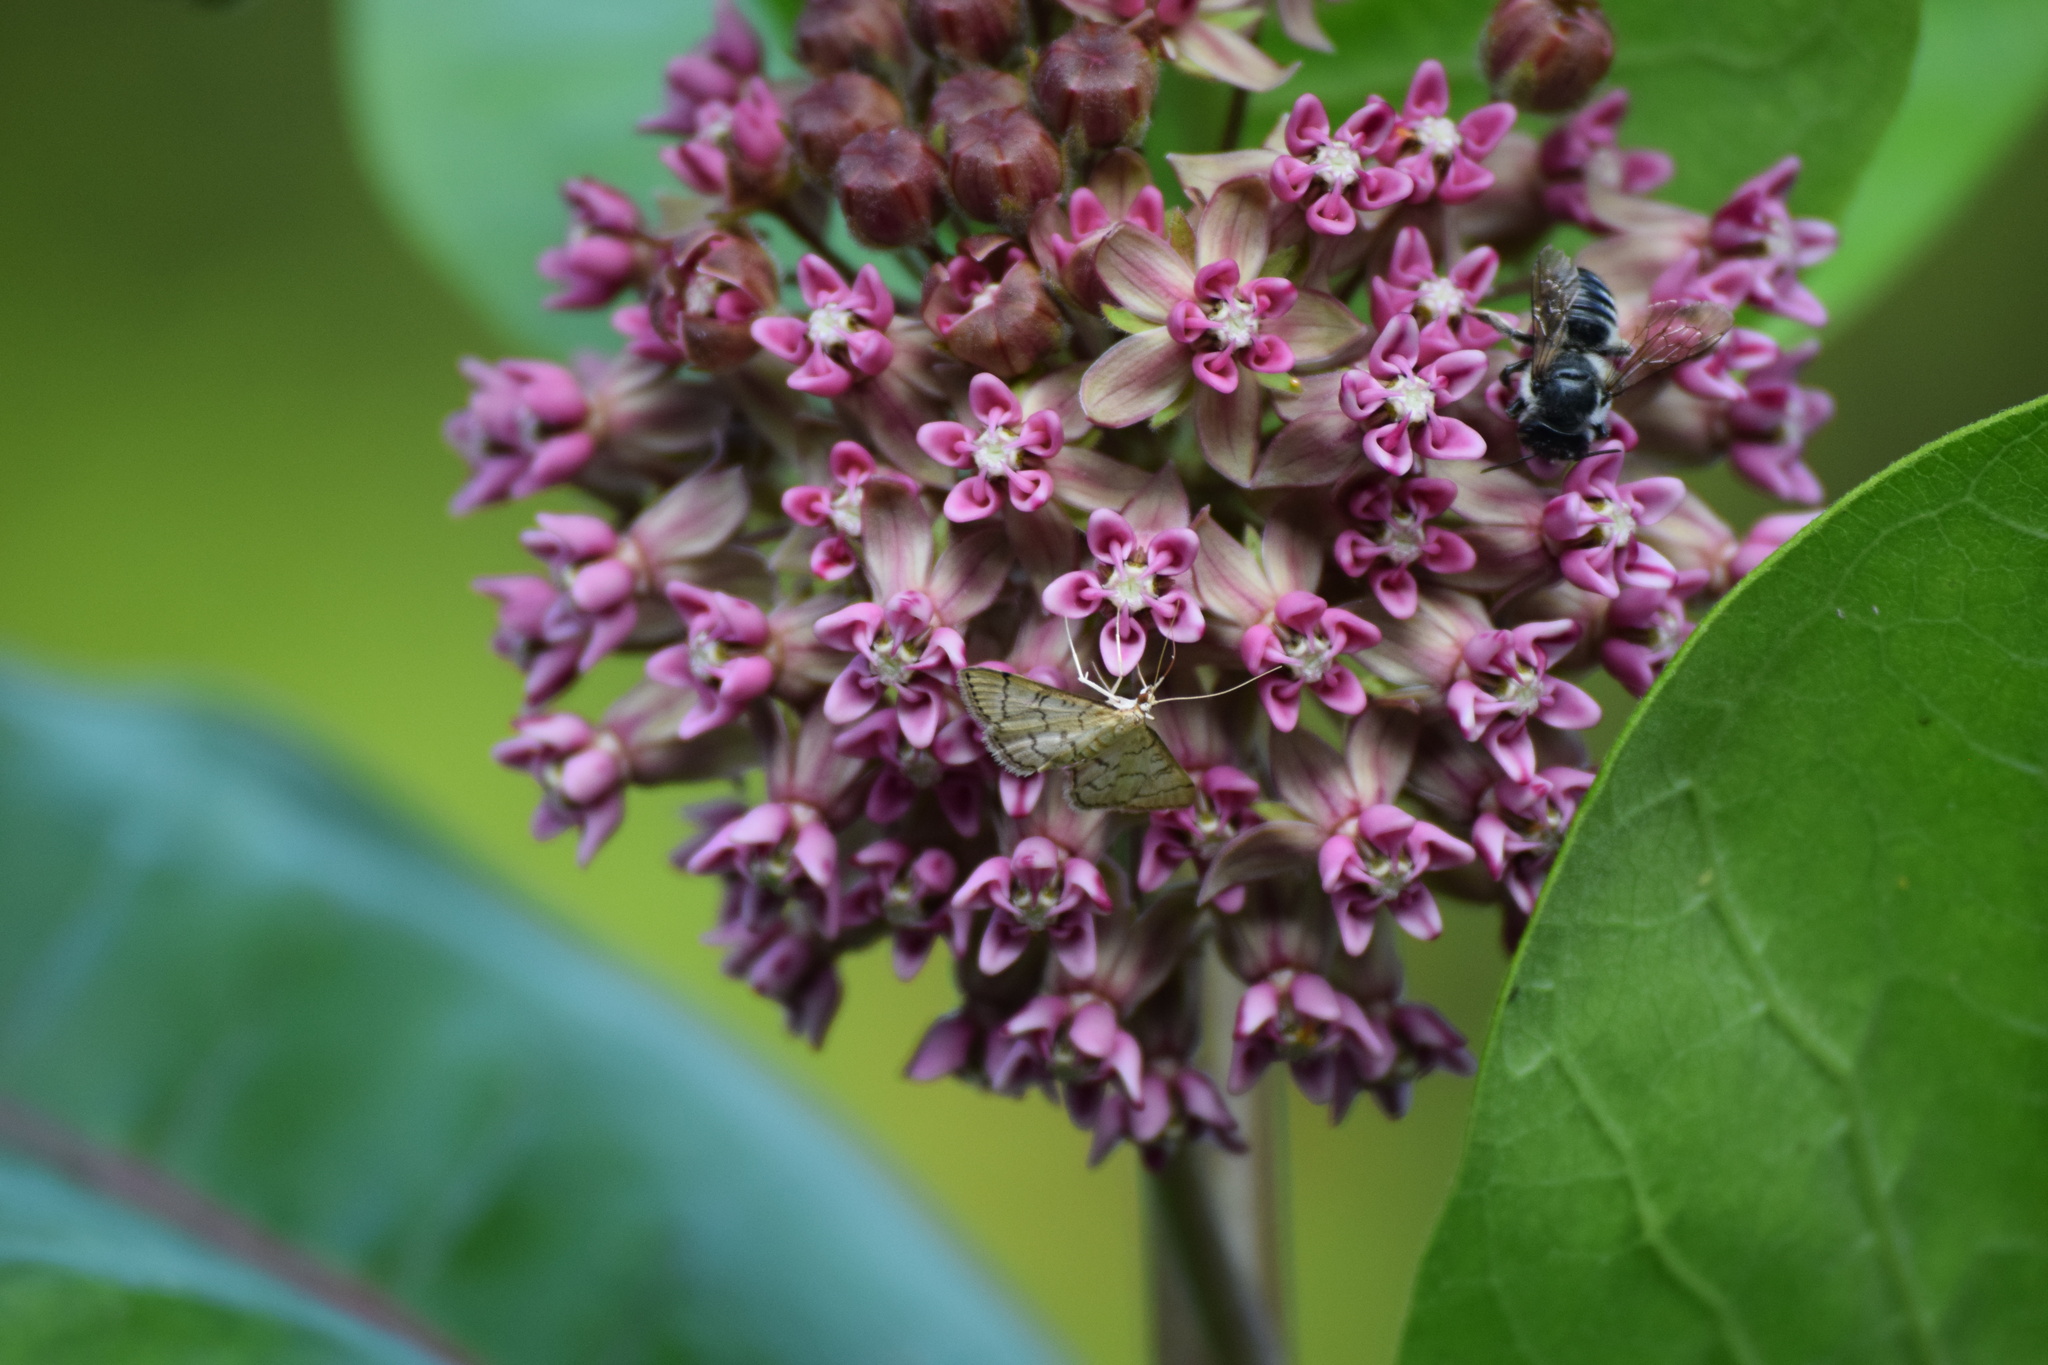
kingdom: Animalia
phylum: Arthropoda
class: Insecta
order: Lepidoptera
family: Crambidae
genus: Lamprosema
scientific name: Lamprosema Blepharomastix ranalis
